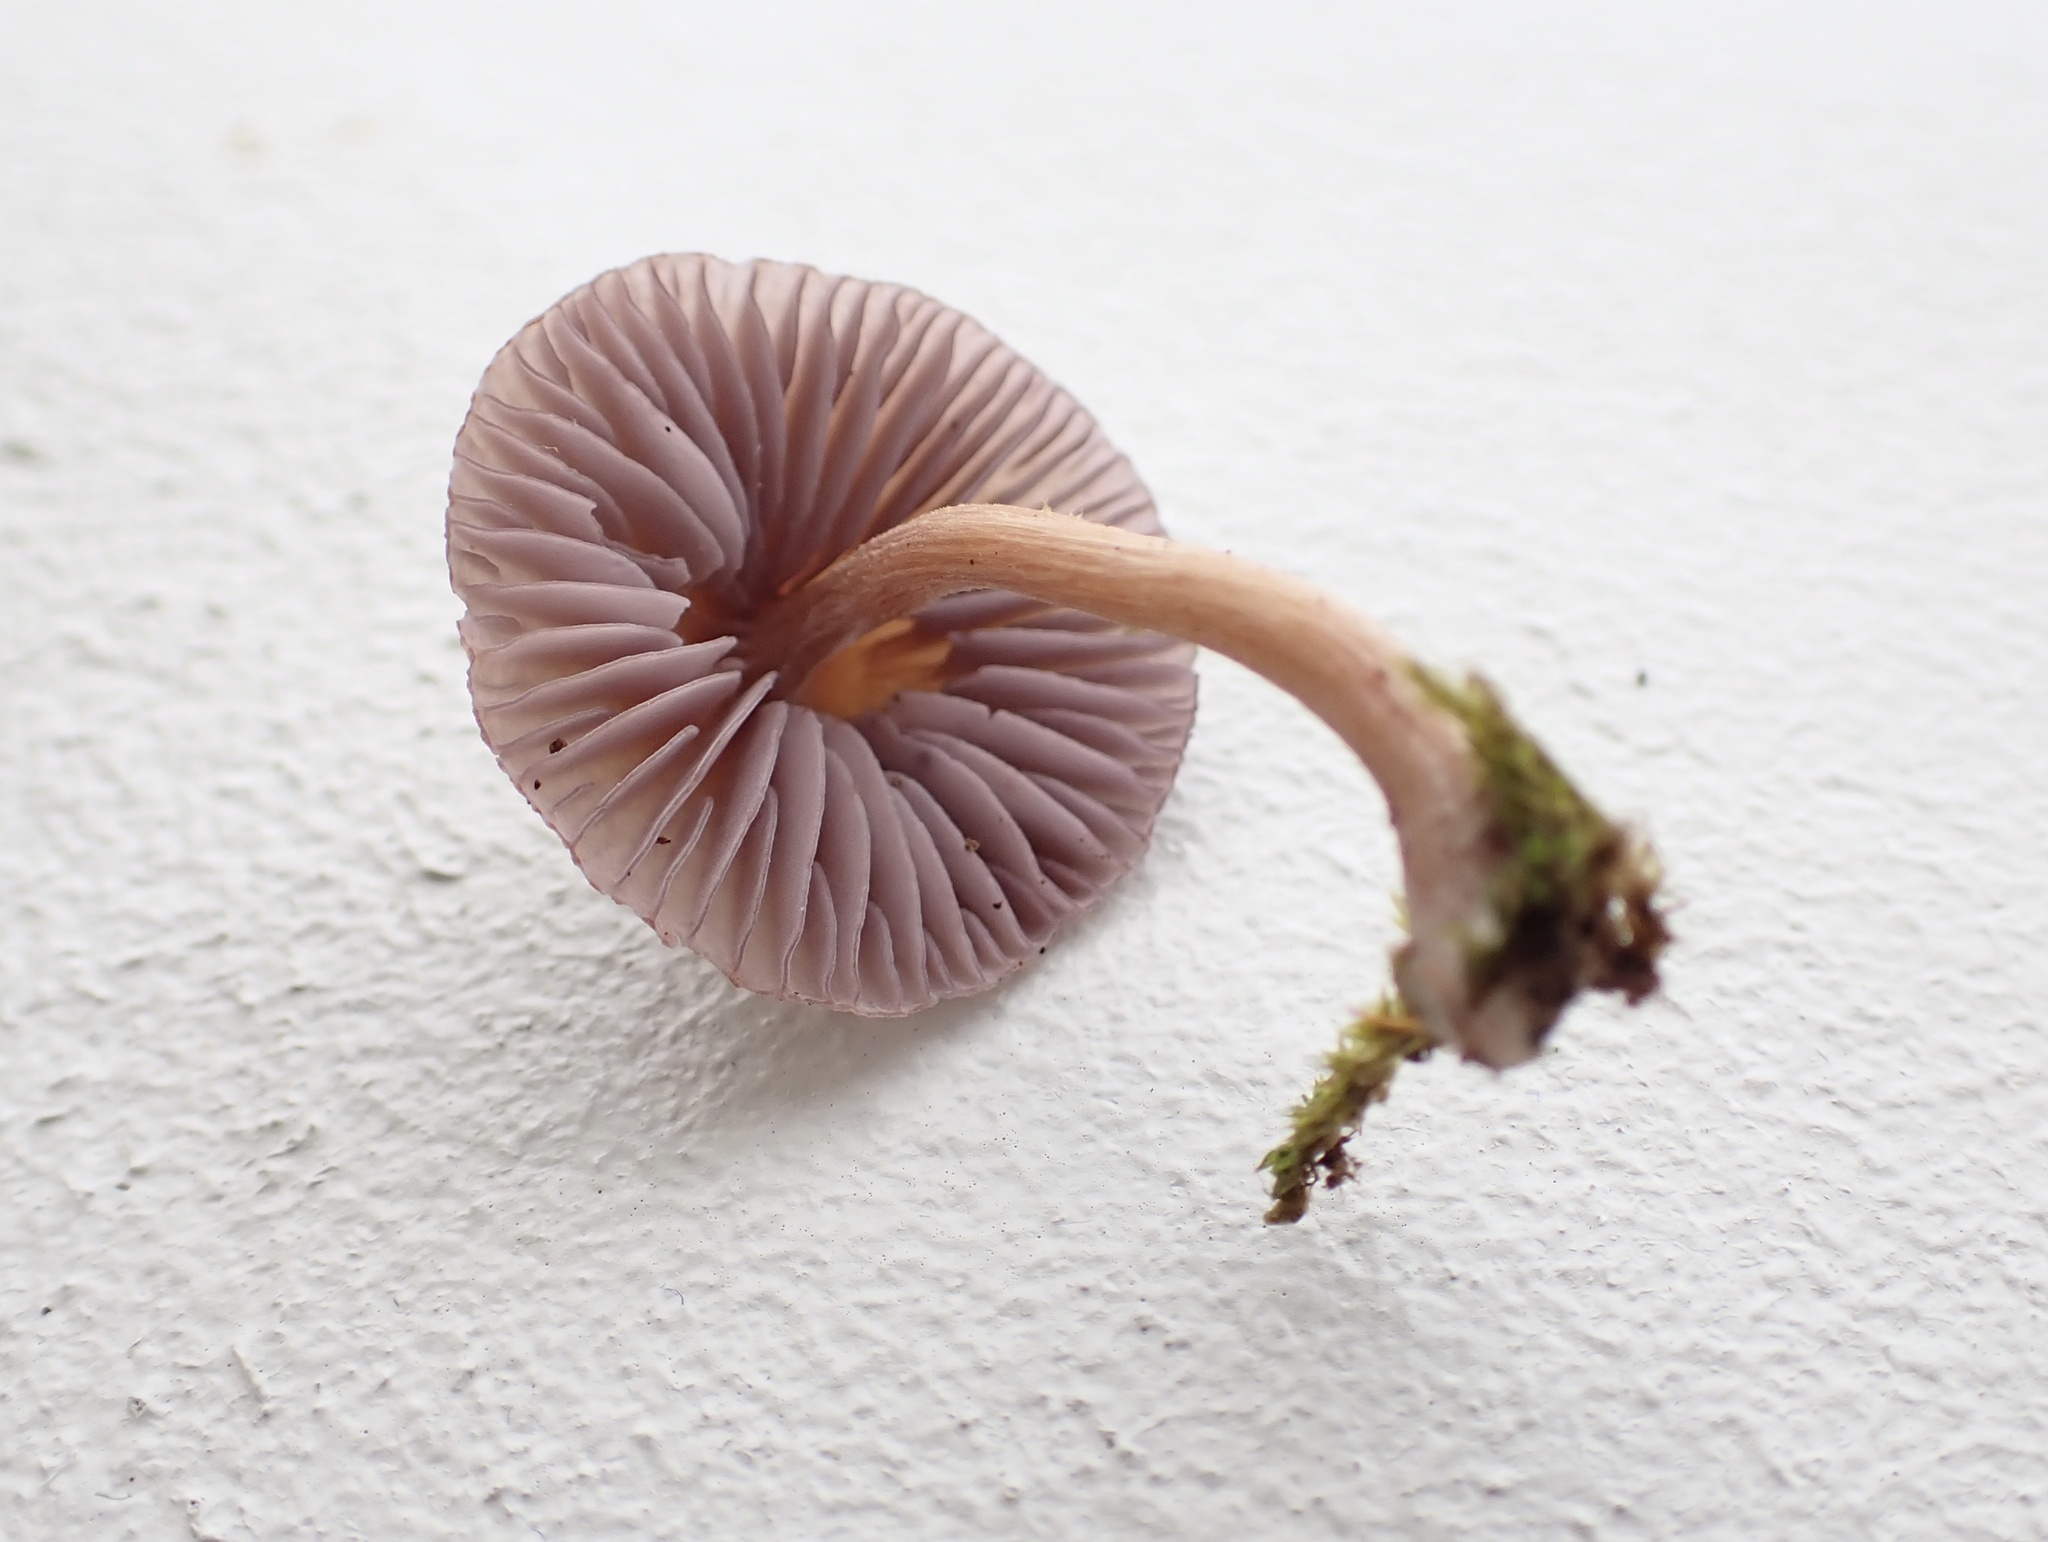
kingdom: Fungi
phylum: Basidiomycota
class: Agaricomycetes
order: Agaricales
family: Hydnangiaceae
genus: Laccaria
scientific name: Laccaria amethystina
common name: Amethyst deceiver
